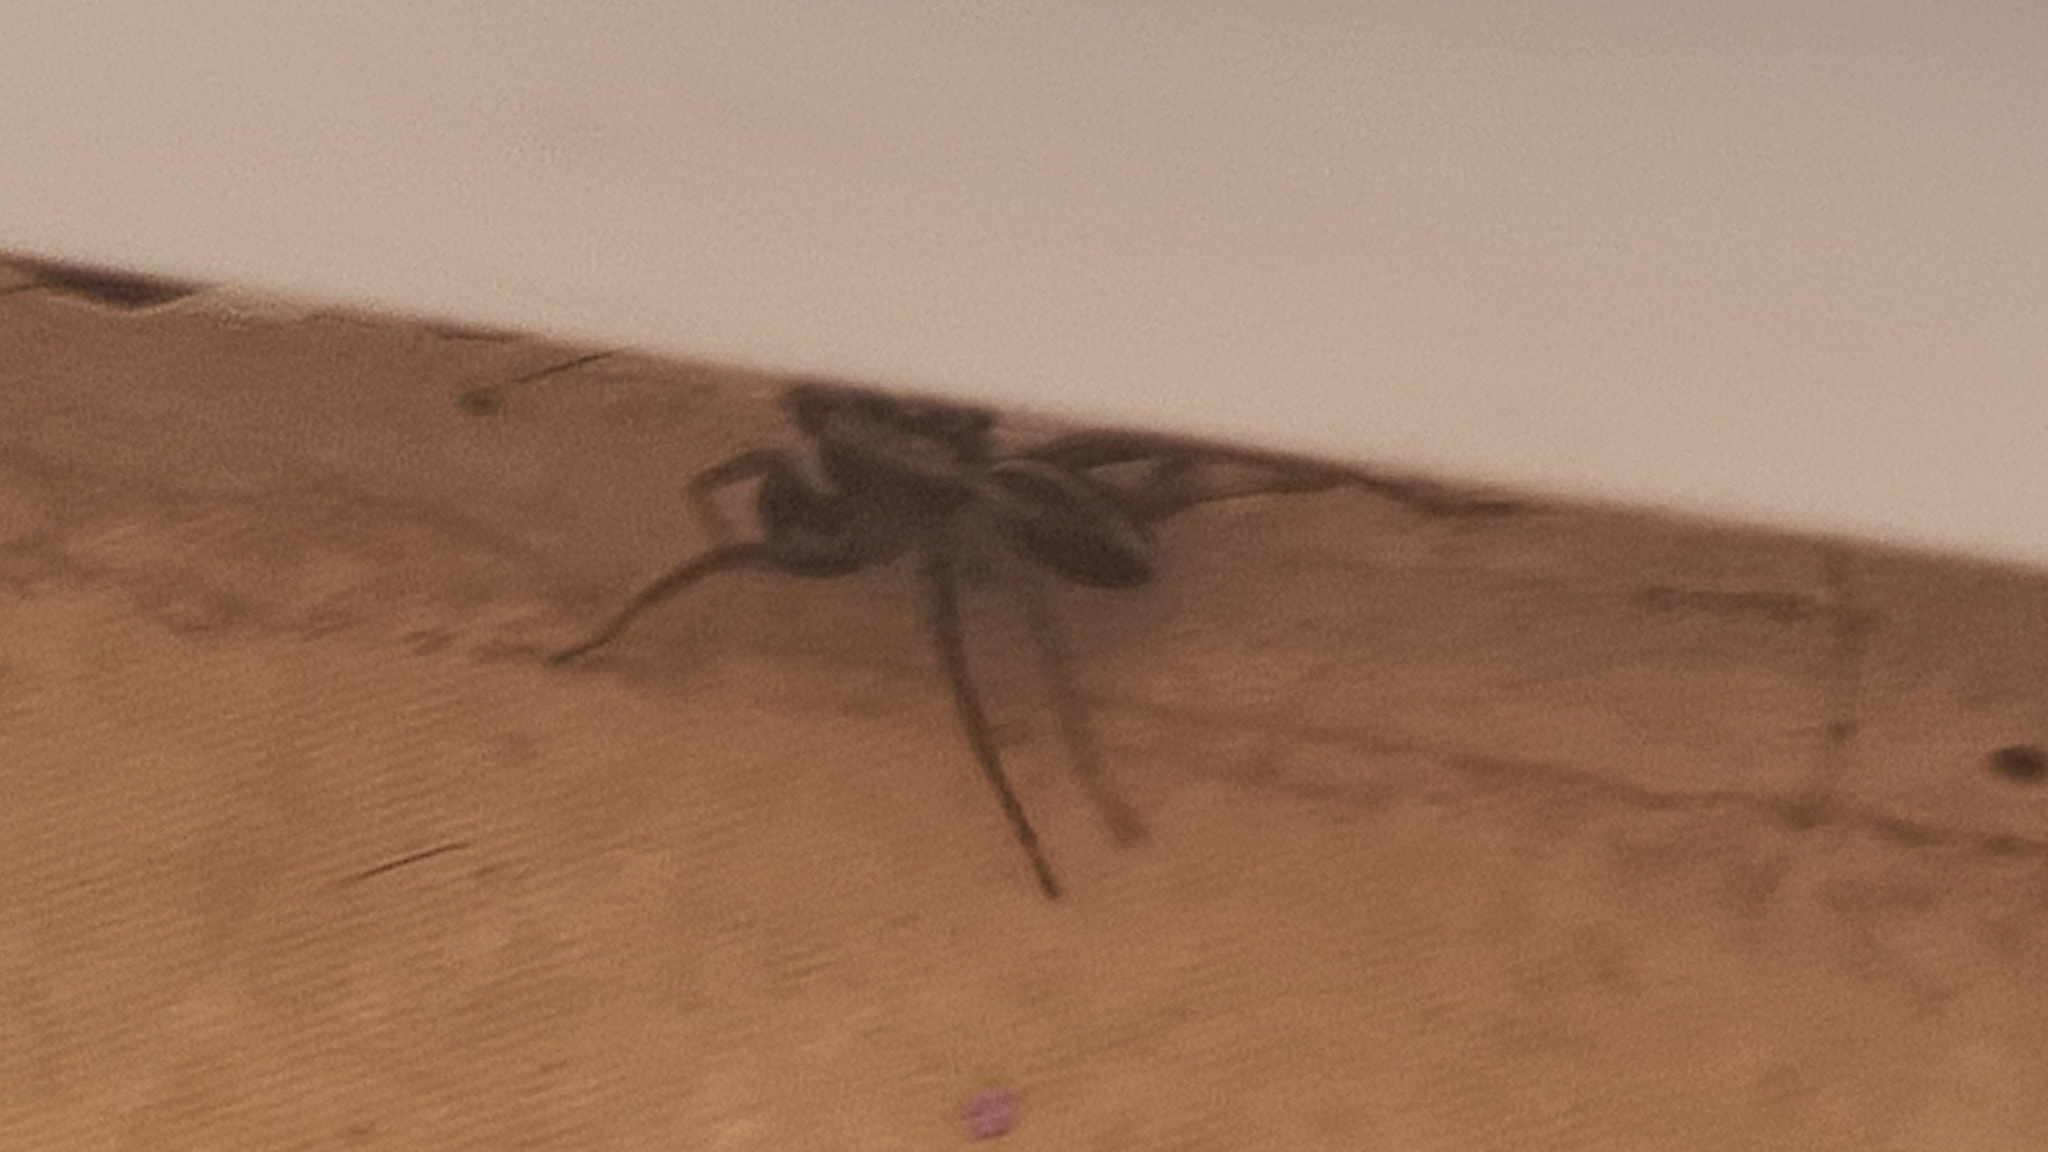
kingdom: Animalia
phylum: Arthropoda
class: Arachnida
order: Araneae
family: Lycosidae
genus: Alopecosa
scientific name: Alopecosa albofasciata
